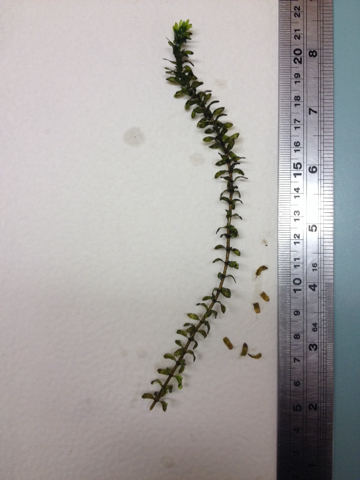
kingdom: Plantae
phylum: Tracheophyta
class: Liliopsida
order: Alismatales
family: Hydrocharitaceae
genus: Elodea
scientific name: Elodea canadensis
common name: Canadian waterweed
